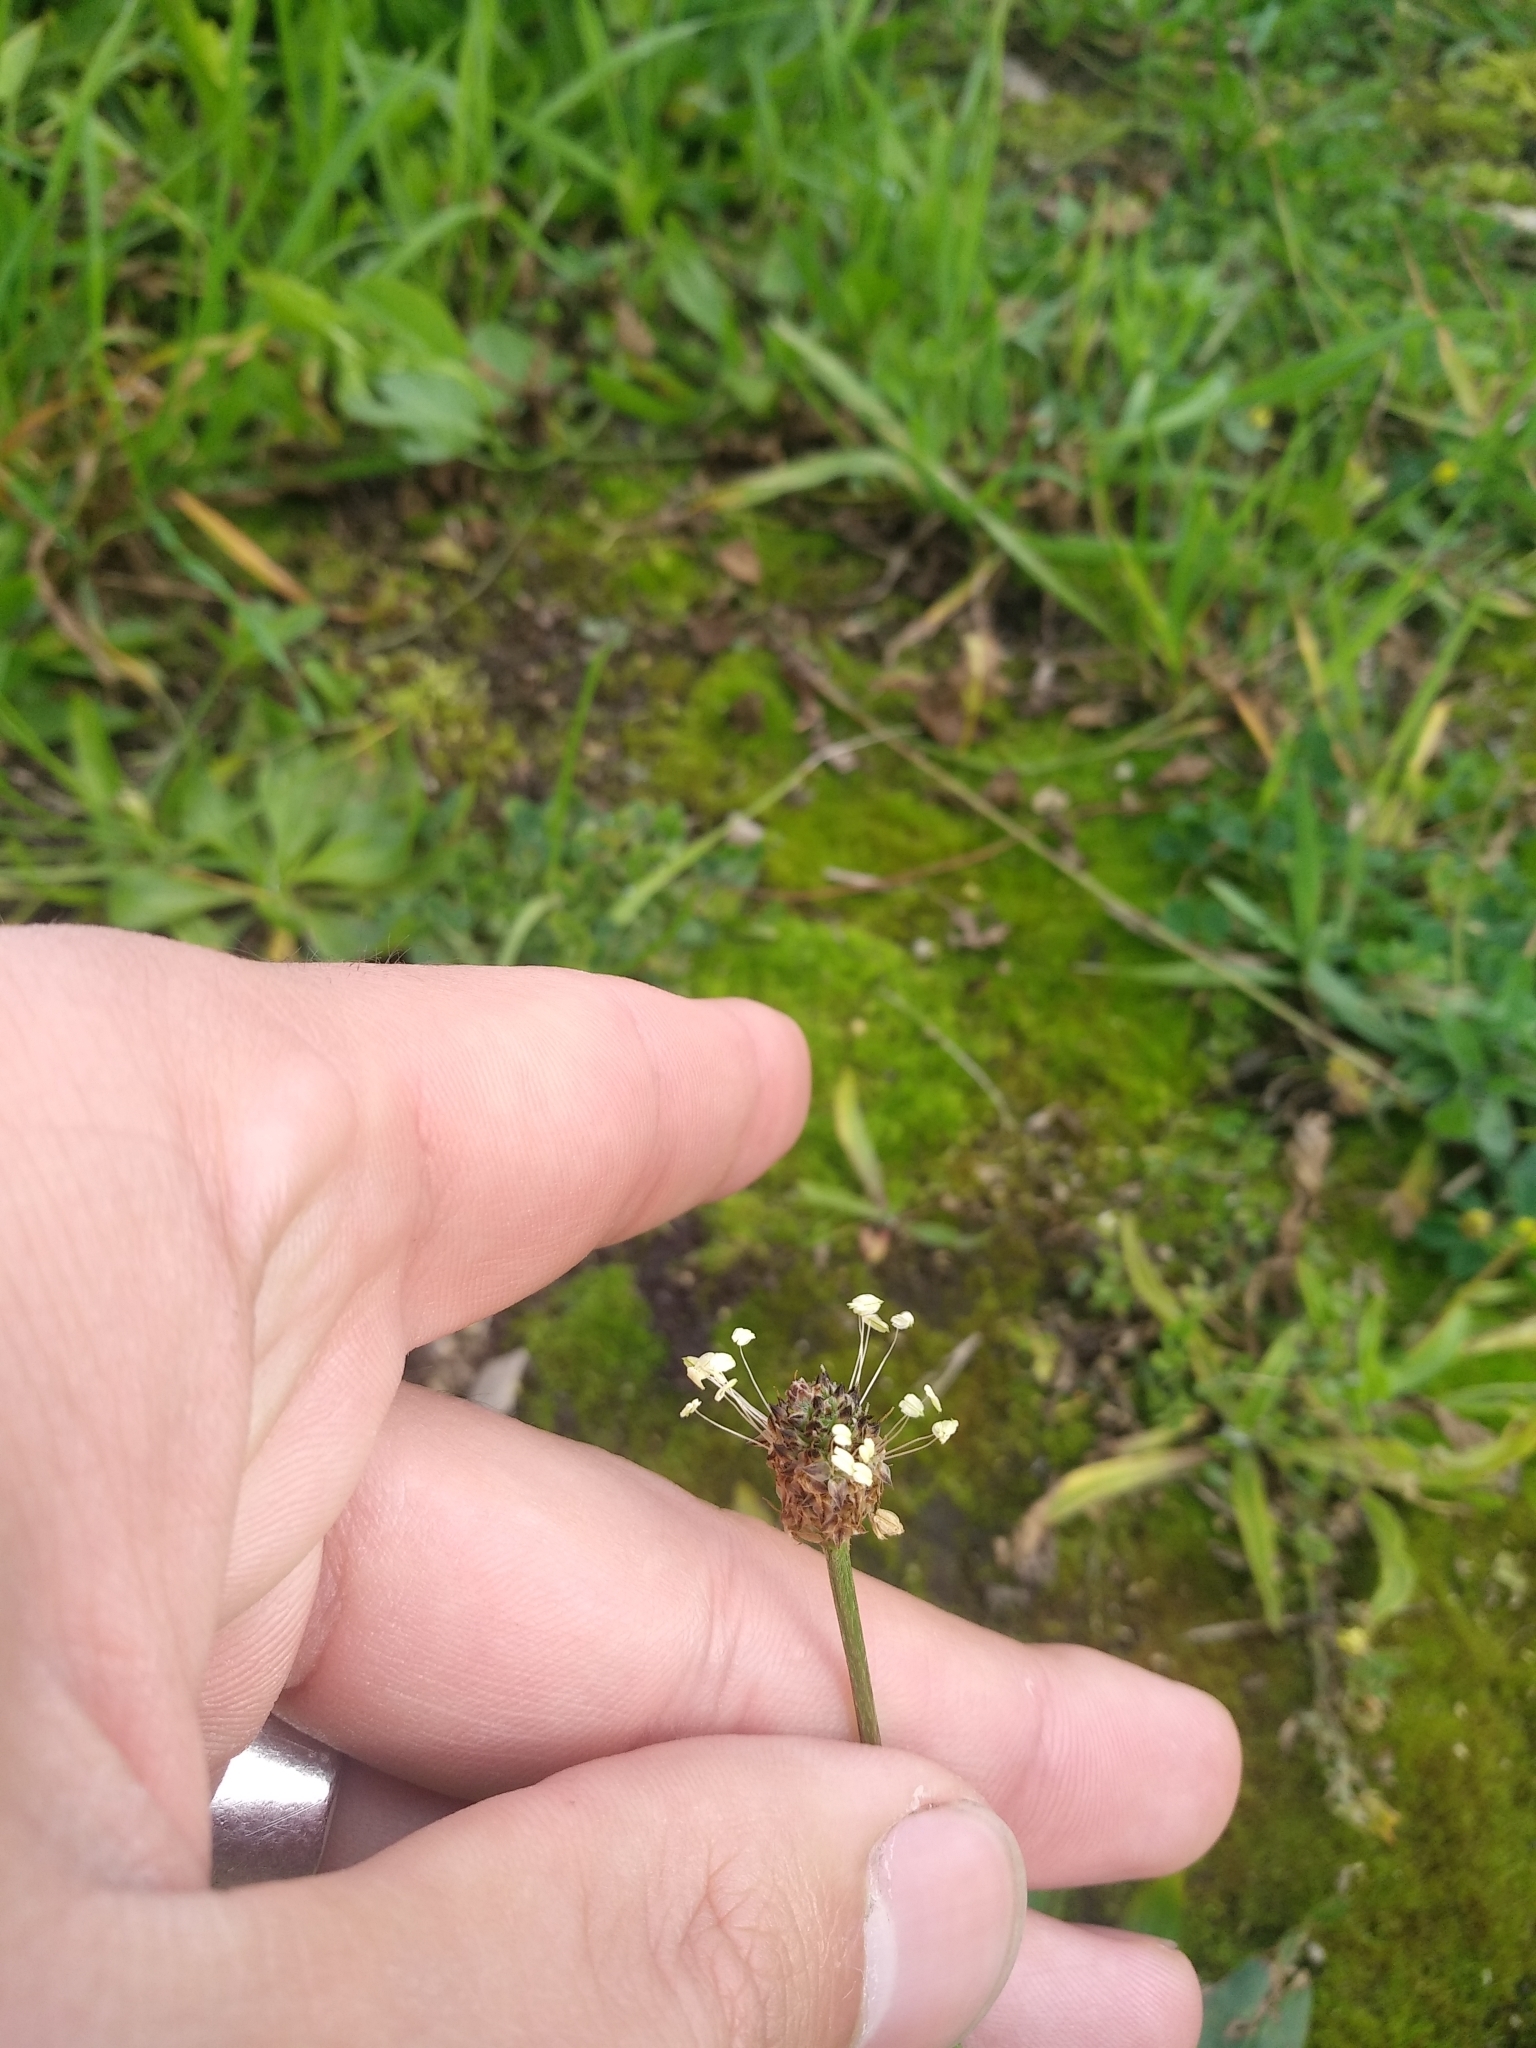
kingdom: Plantae
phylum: Tracheophyta
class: Magnoliopsida
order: Lamiales
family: Plantaginaceae
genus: Plantago
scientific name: Plantago lanceolata
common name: Ribwort plantain
